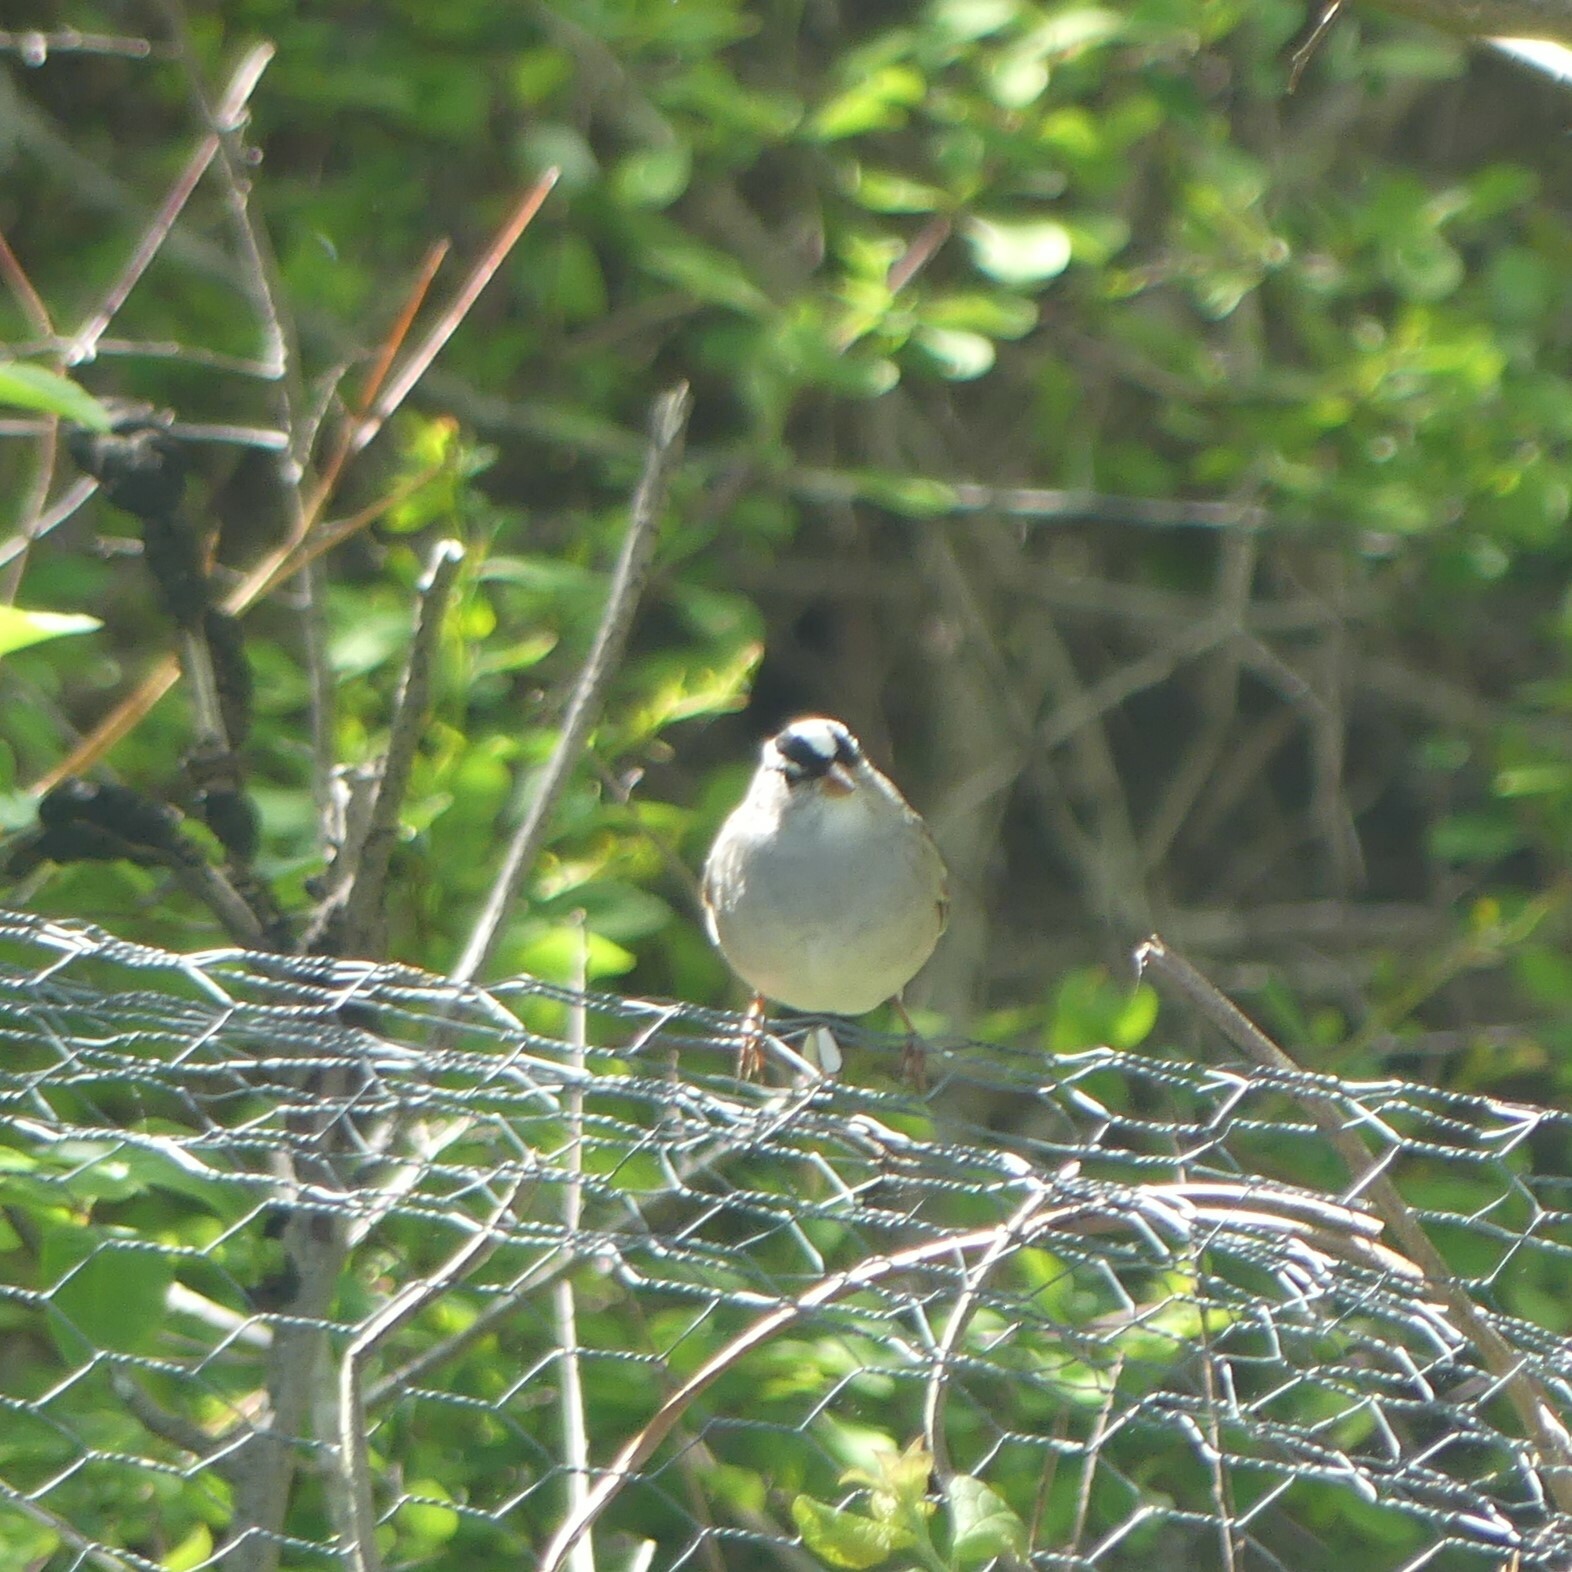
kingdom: Animalia
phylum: Chordata
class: Aves
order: Passeriformes
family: Passerellidae
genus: Zonotrichia
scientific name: Zonotrichia leucophrys
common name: White-crowned sparrow
